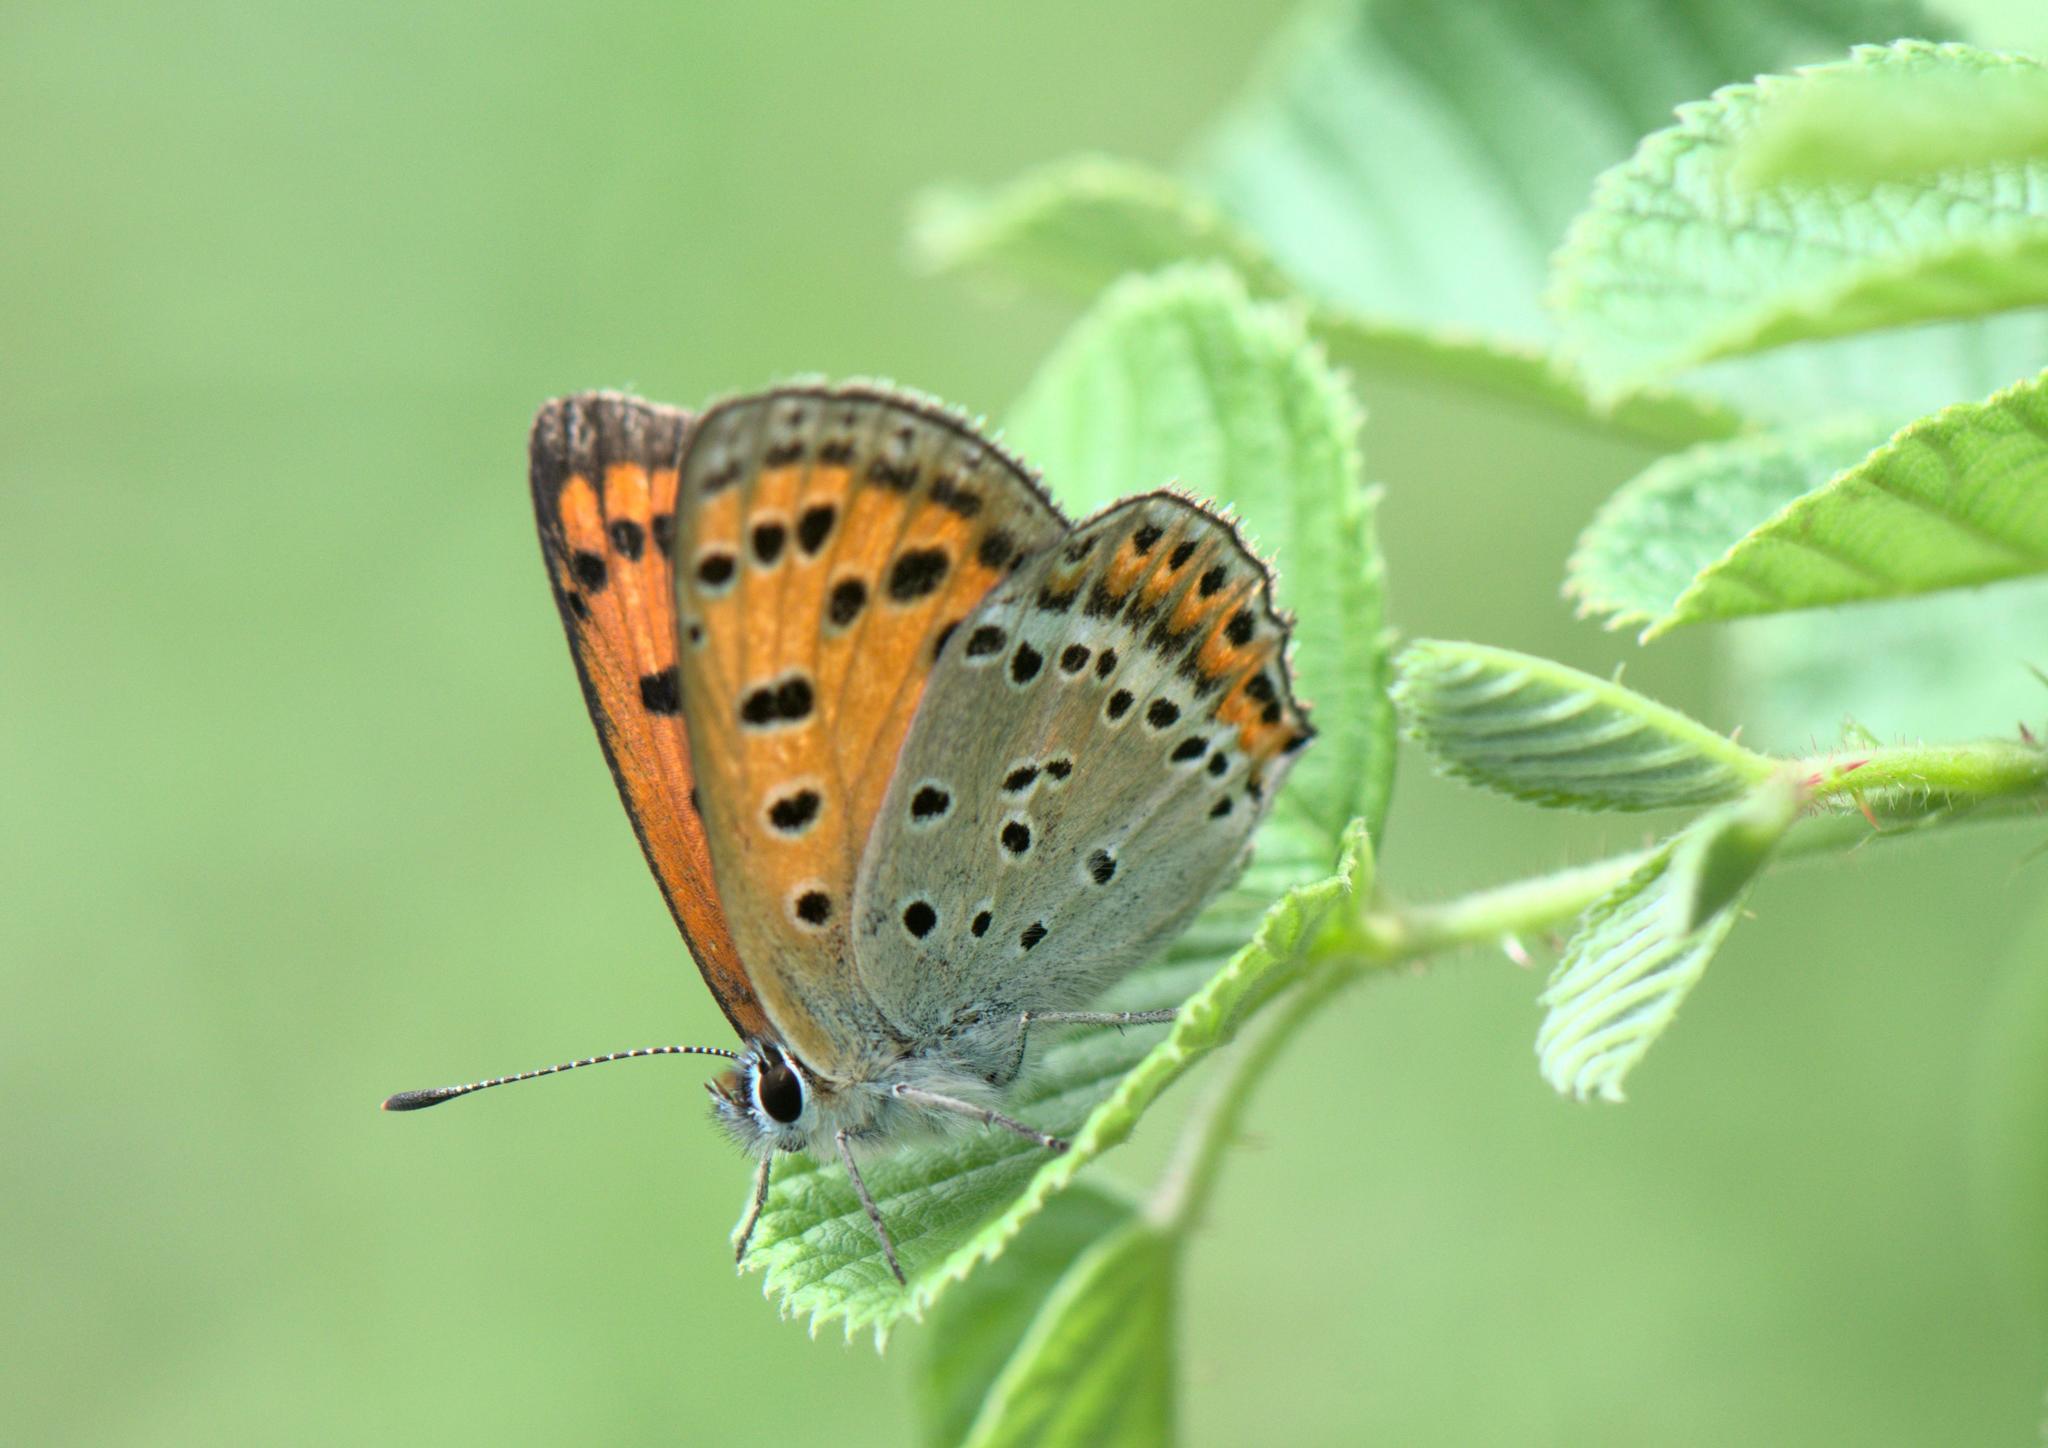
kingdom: Animalia
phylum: Arthropoda
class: Insecta
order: Lepidoptera
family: Lycaenidae
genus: Lycaena
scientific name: Lycaena panava
